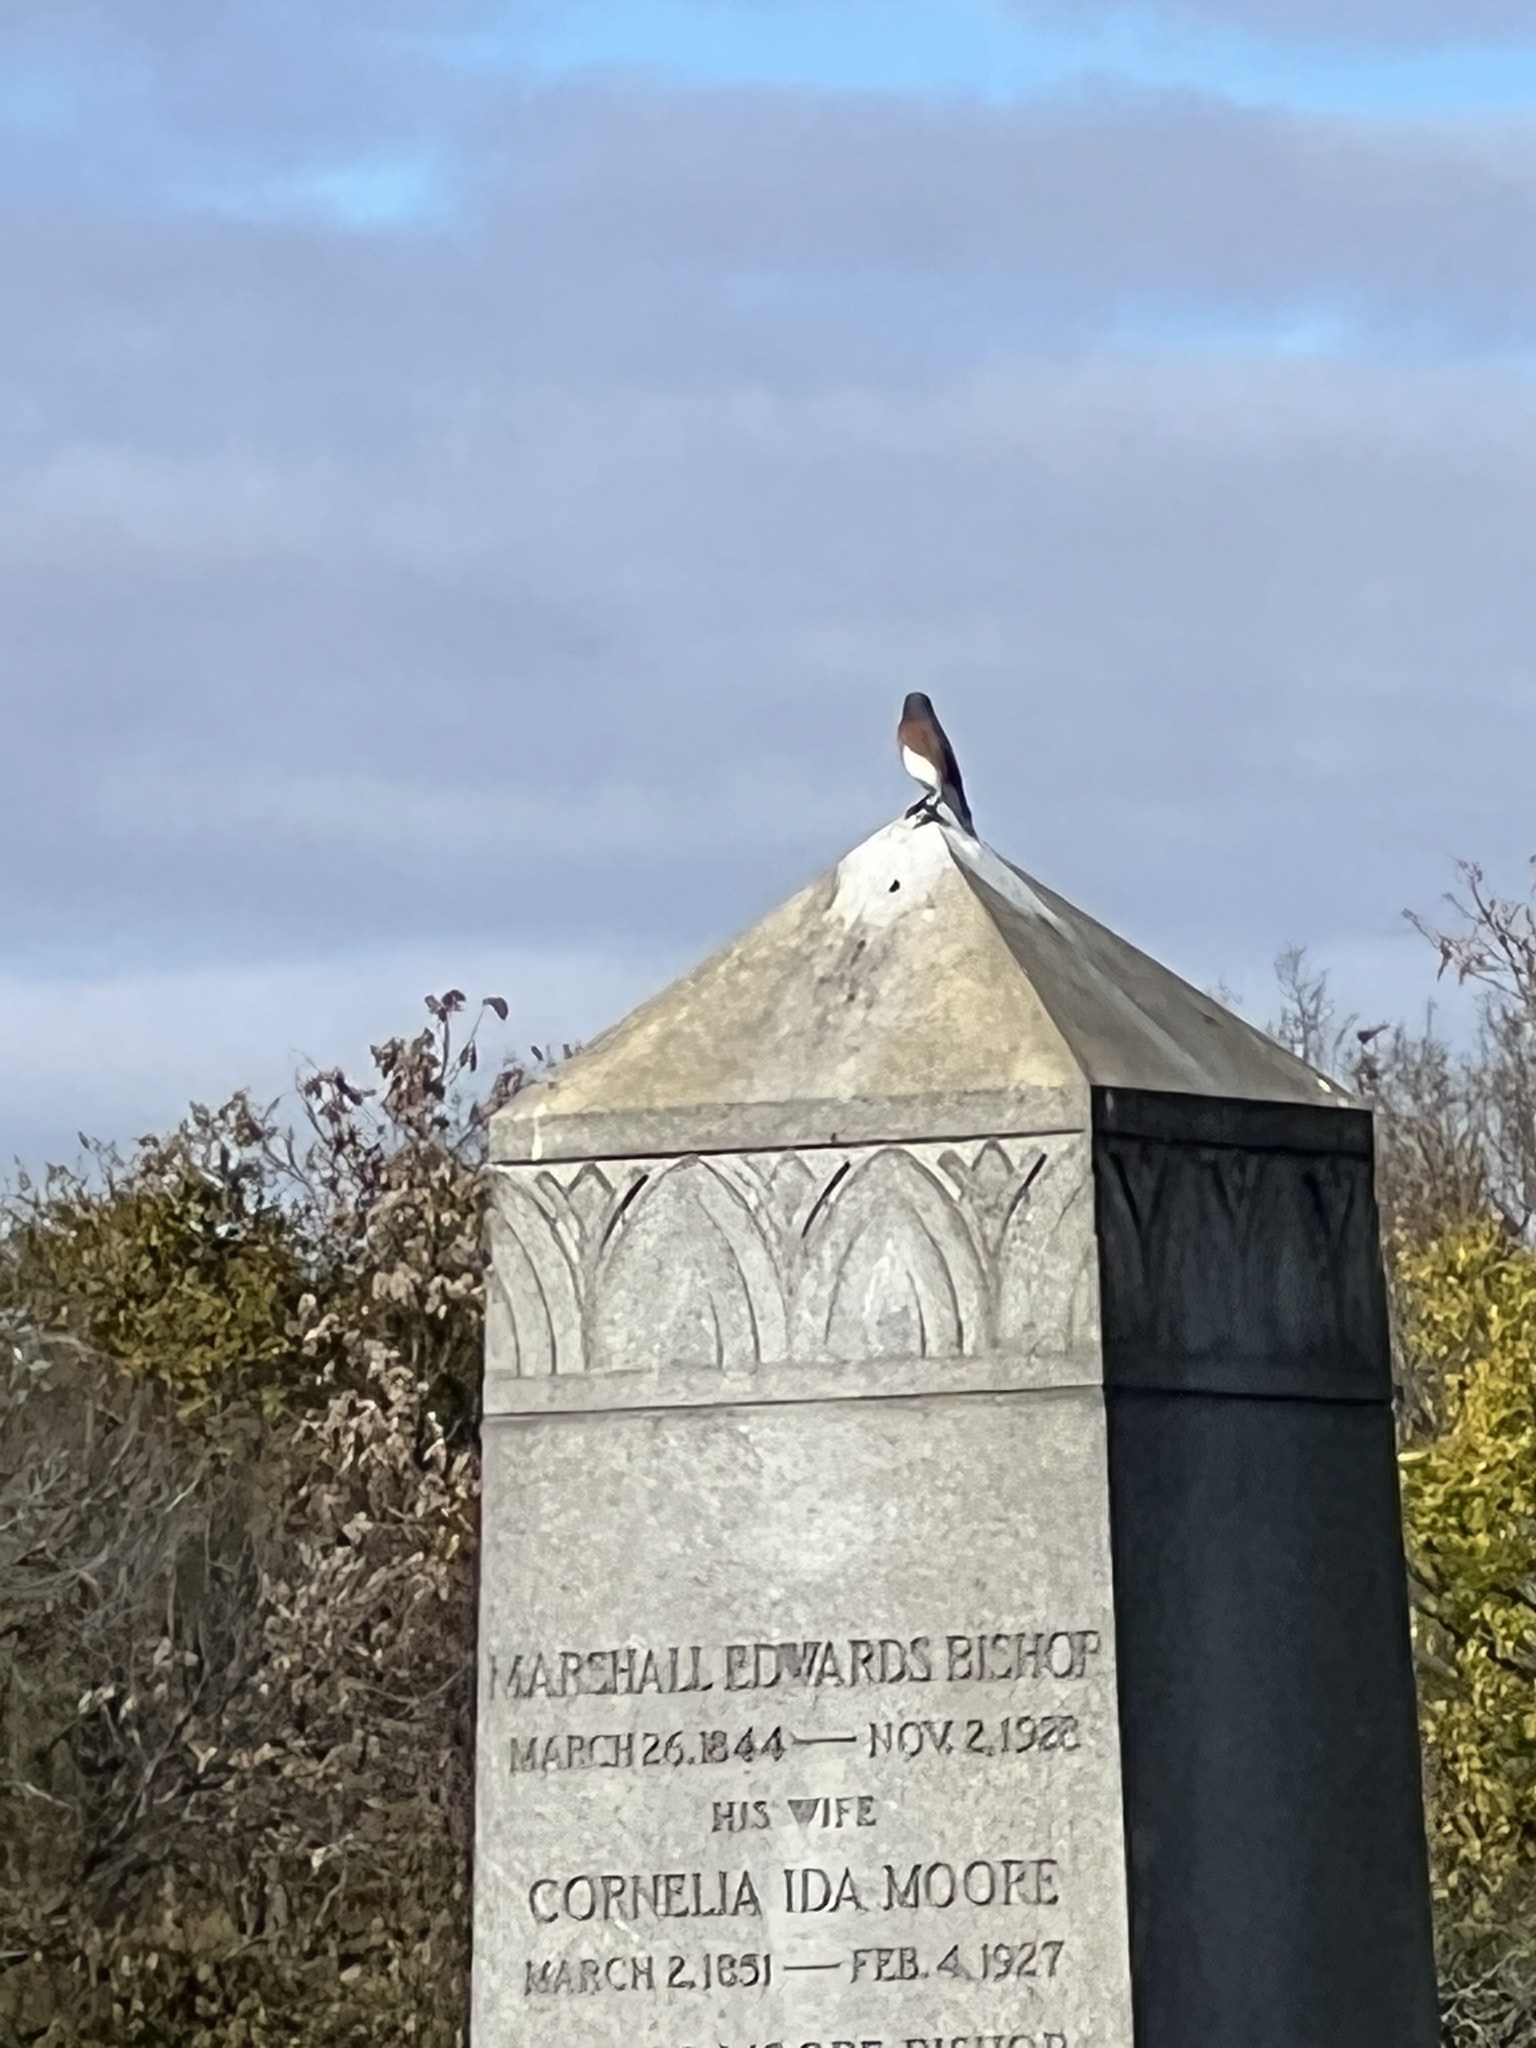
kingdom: Animalia
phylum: Chordata
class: Aves
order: Passeriformes
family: Turdidae
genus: Sialia
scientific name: Sialia sialis
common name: Eastern bluebird
